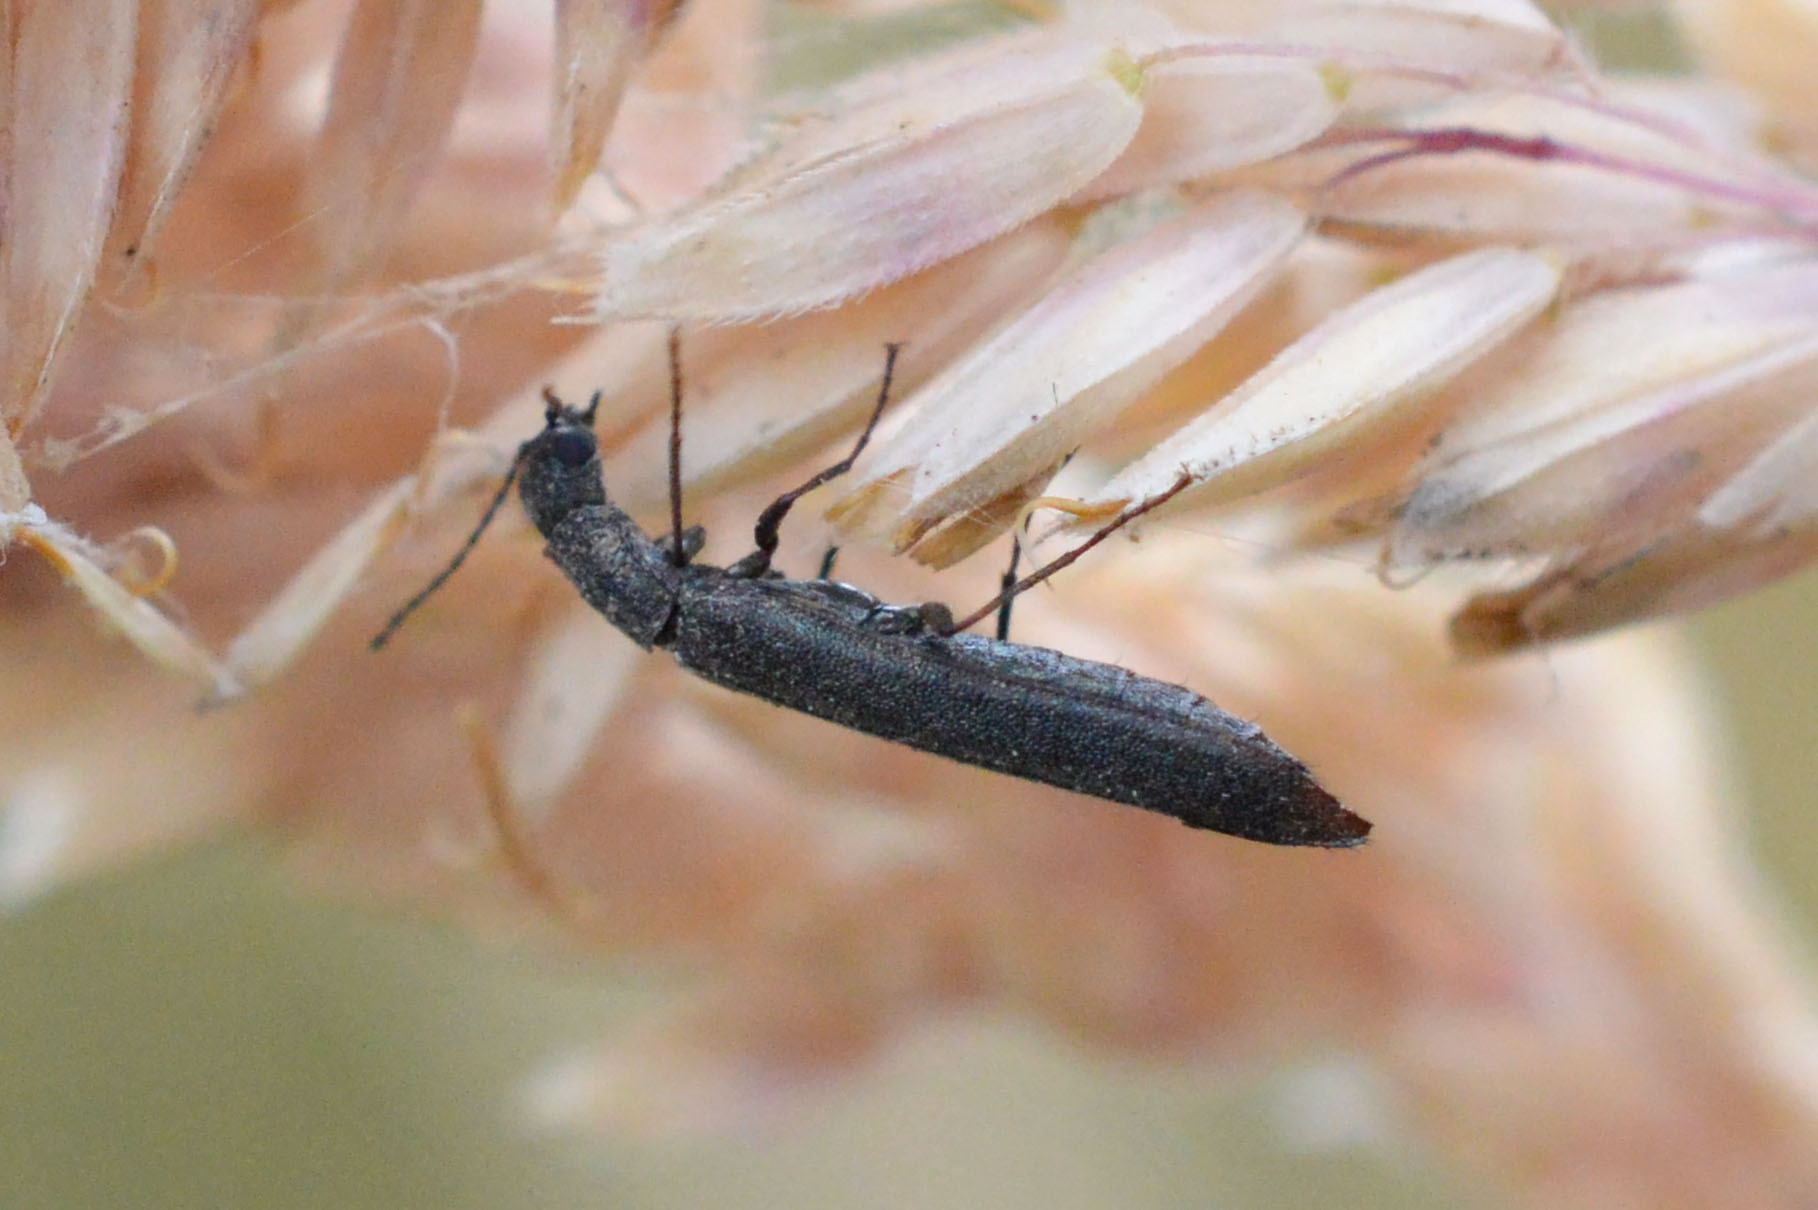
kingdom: Animalia
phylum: Arthropoda
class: Insecta
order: Coleoptera
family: Melyridae
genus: Dolichosoma
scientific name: Dolichosoma lineare
